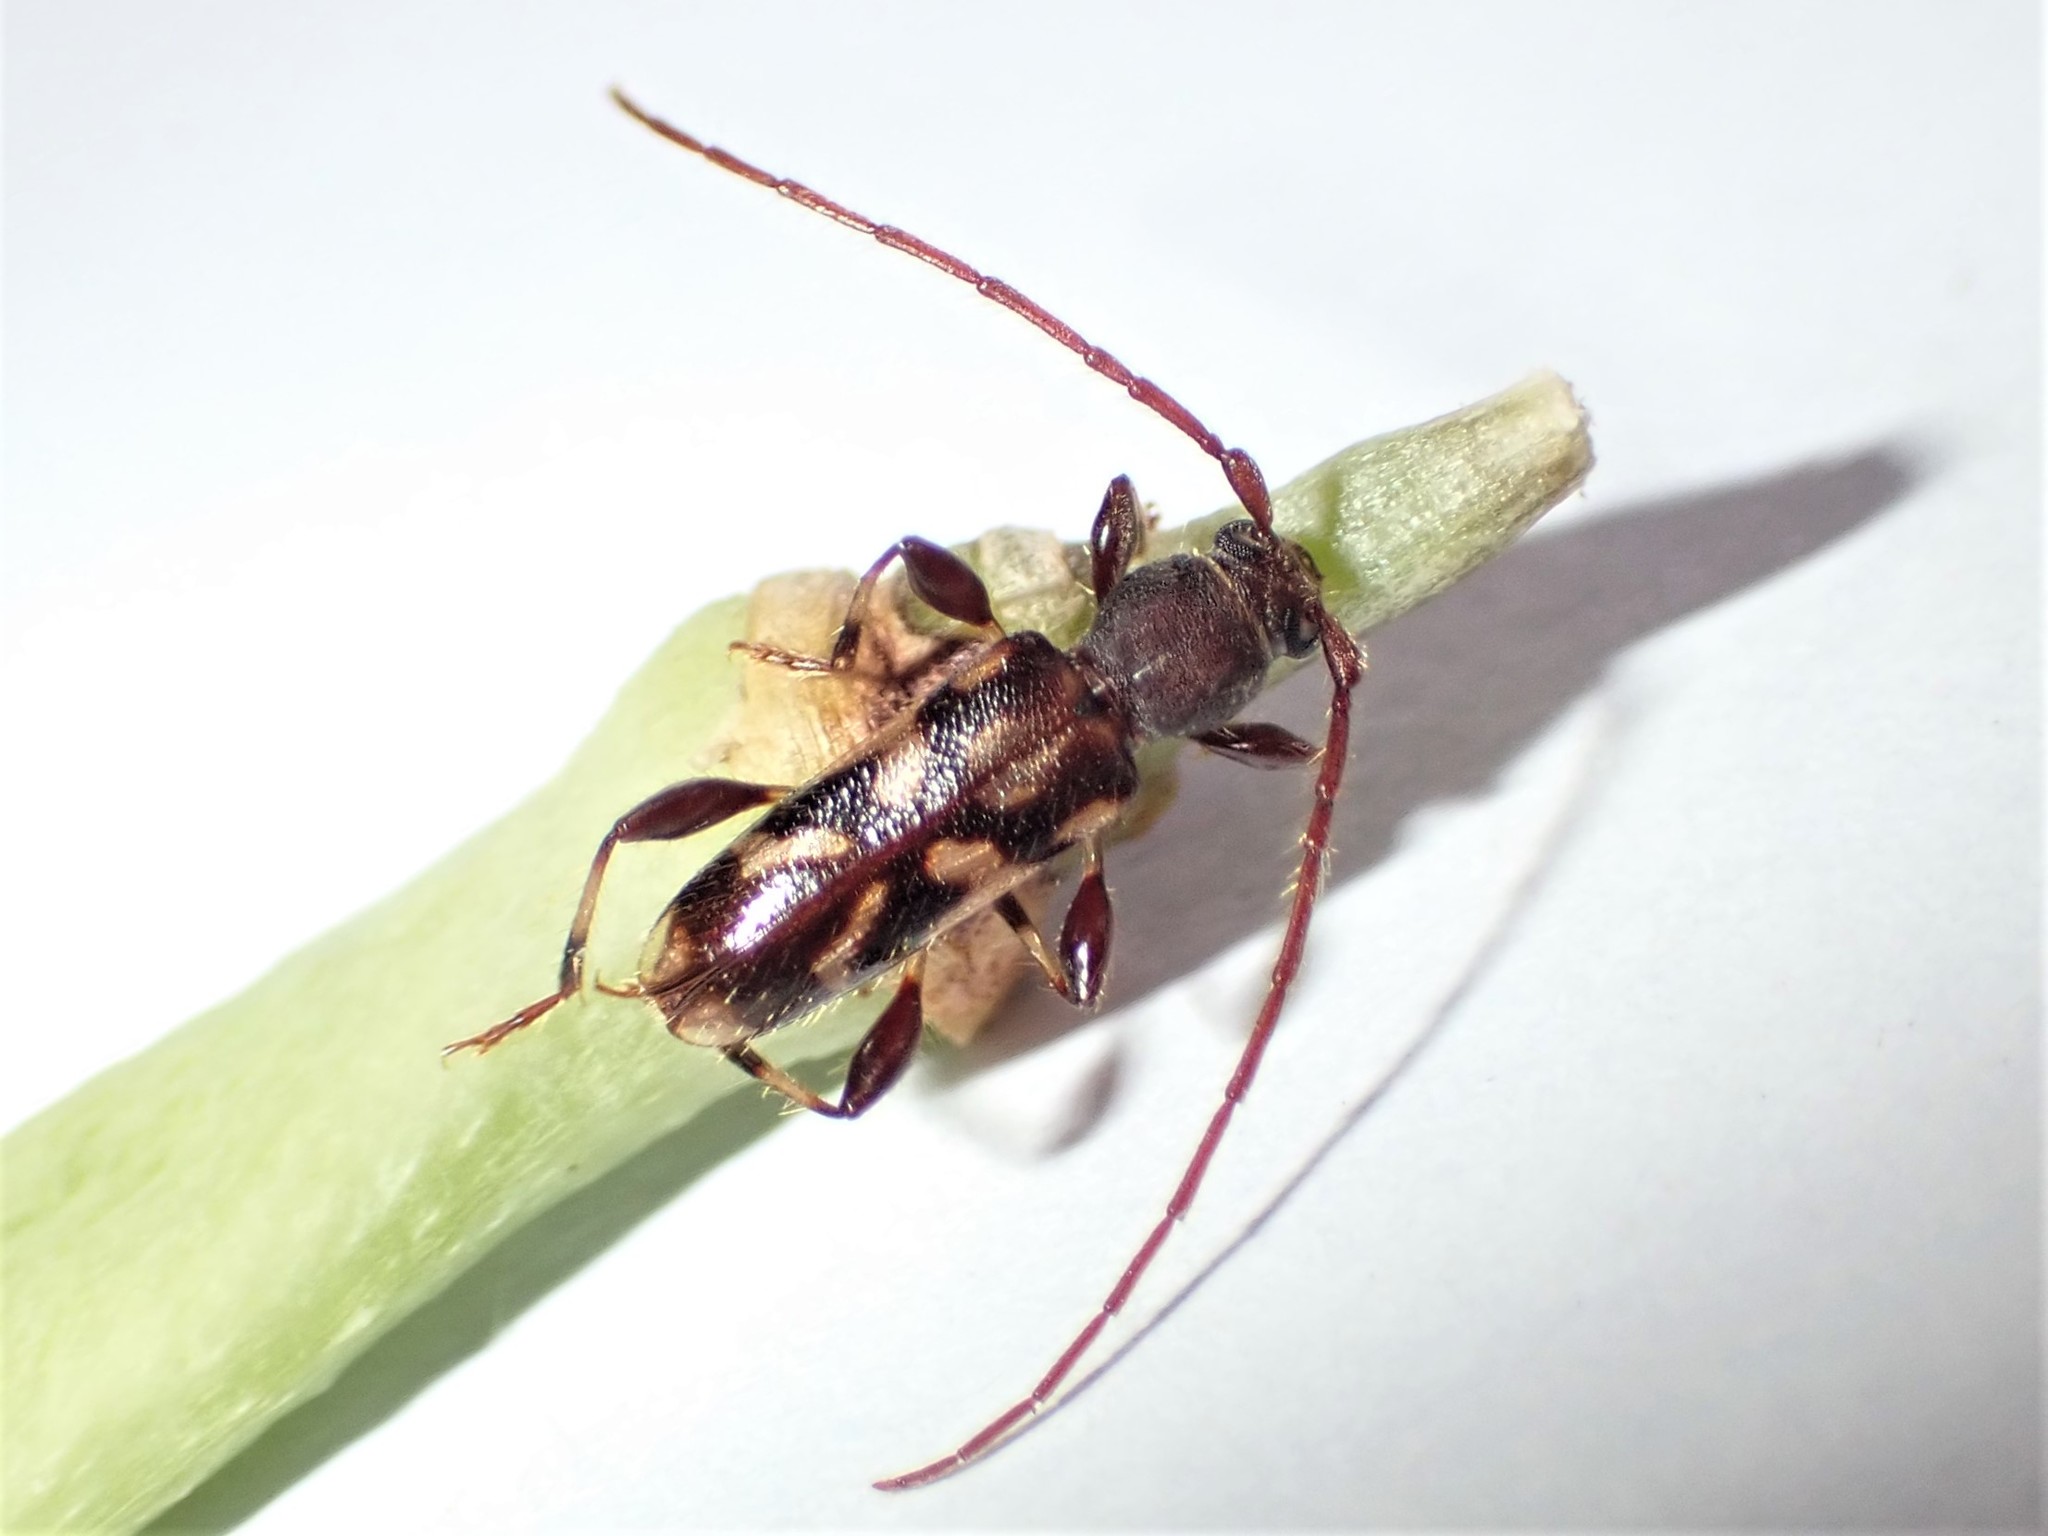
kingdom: Animalia
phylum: Arthropoda
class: Insecta
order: Coleoptera
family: Cerambycidae
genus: Bethelium
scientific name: Bethelium signiferum
